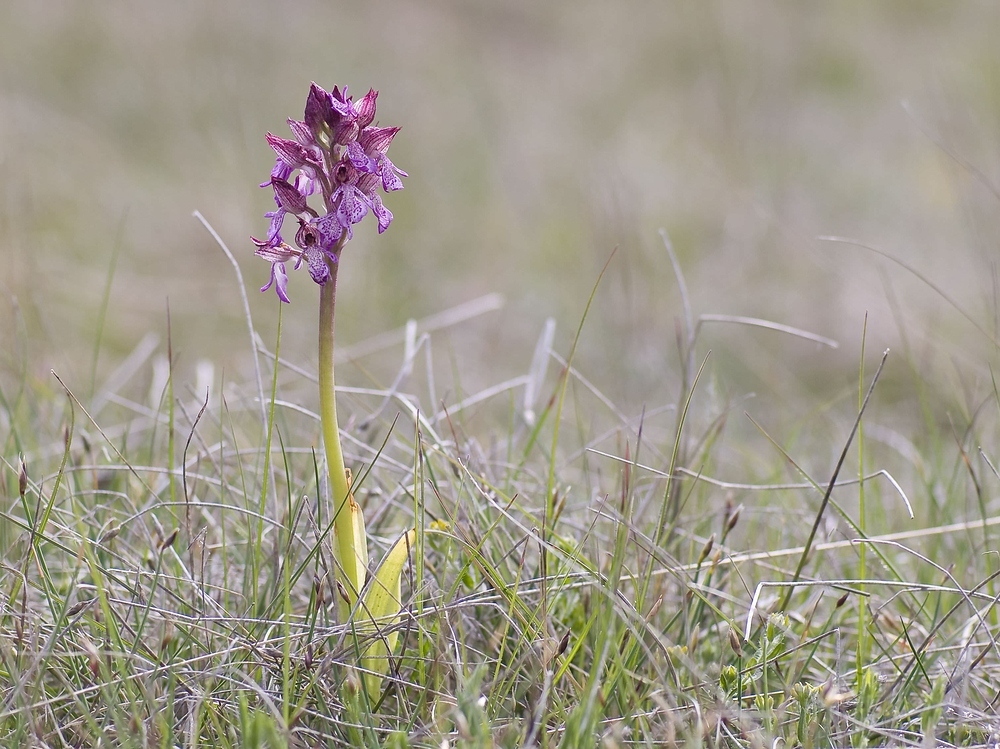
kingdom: Plantae
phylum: Tracheophyta
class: Liliopsida
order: Asparagales
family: Orchidaceae
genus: Orchis
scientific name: Orchis purpurea
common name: Lady orchid
